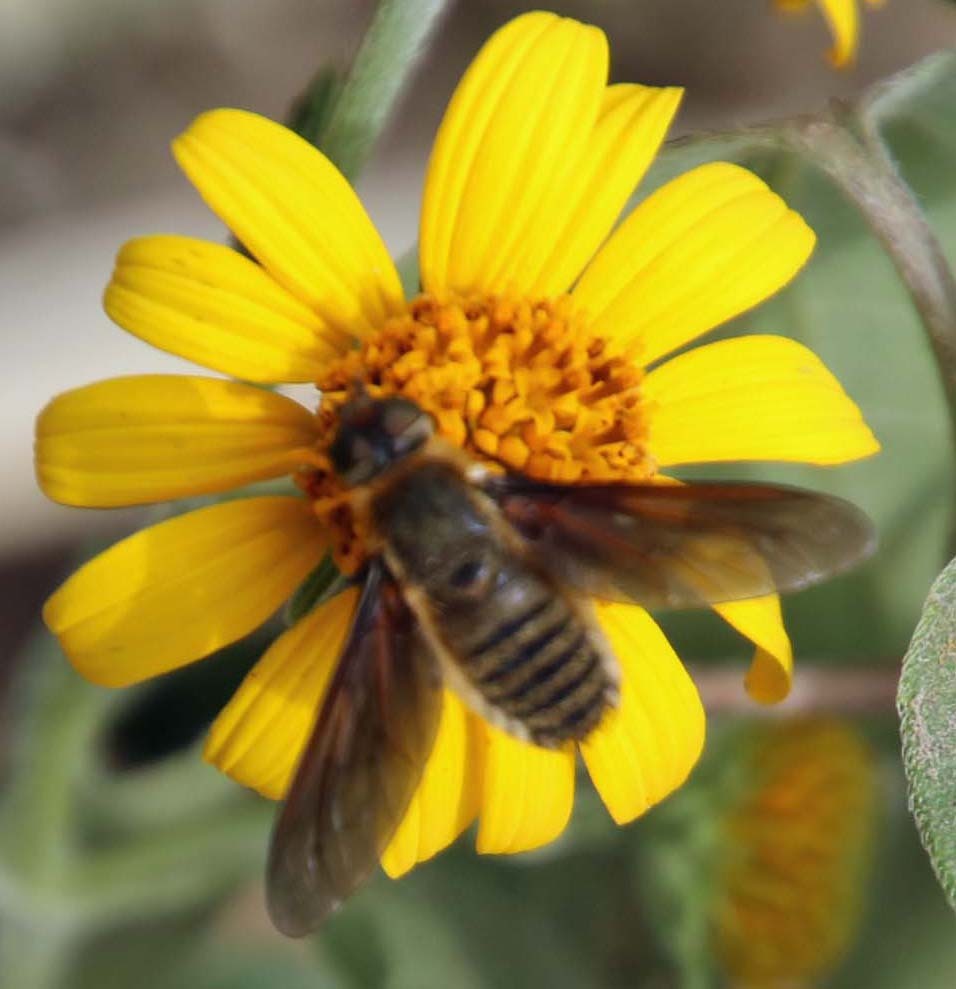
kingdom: Animalia
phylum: Arthropoda
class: Insecta
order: Diptera
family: Bombyliidae
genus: Poecilanthrax
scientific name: Poecilanthrax lucifer
